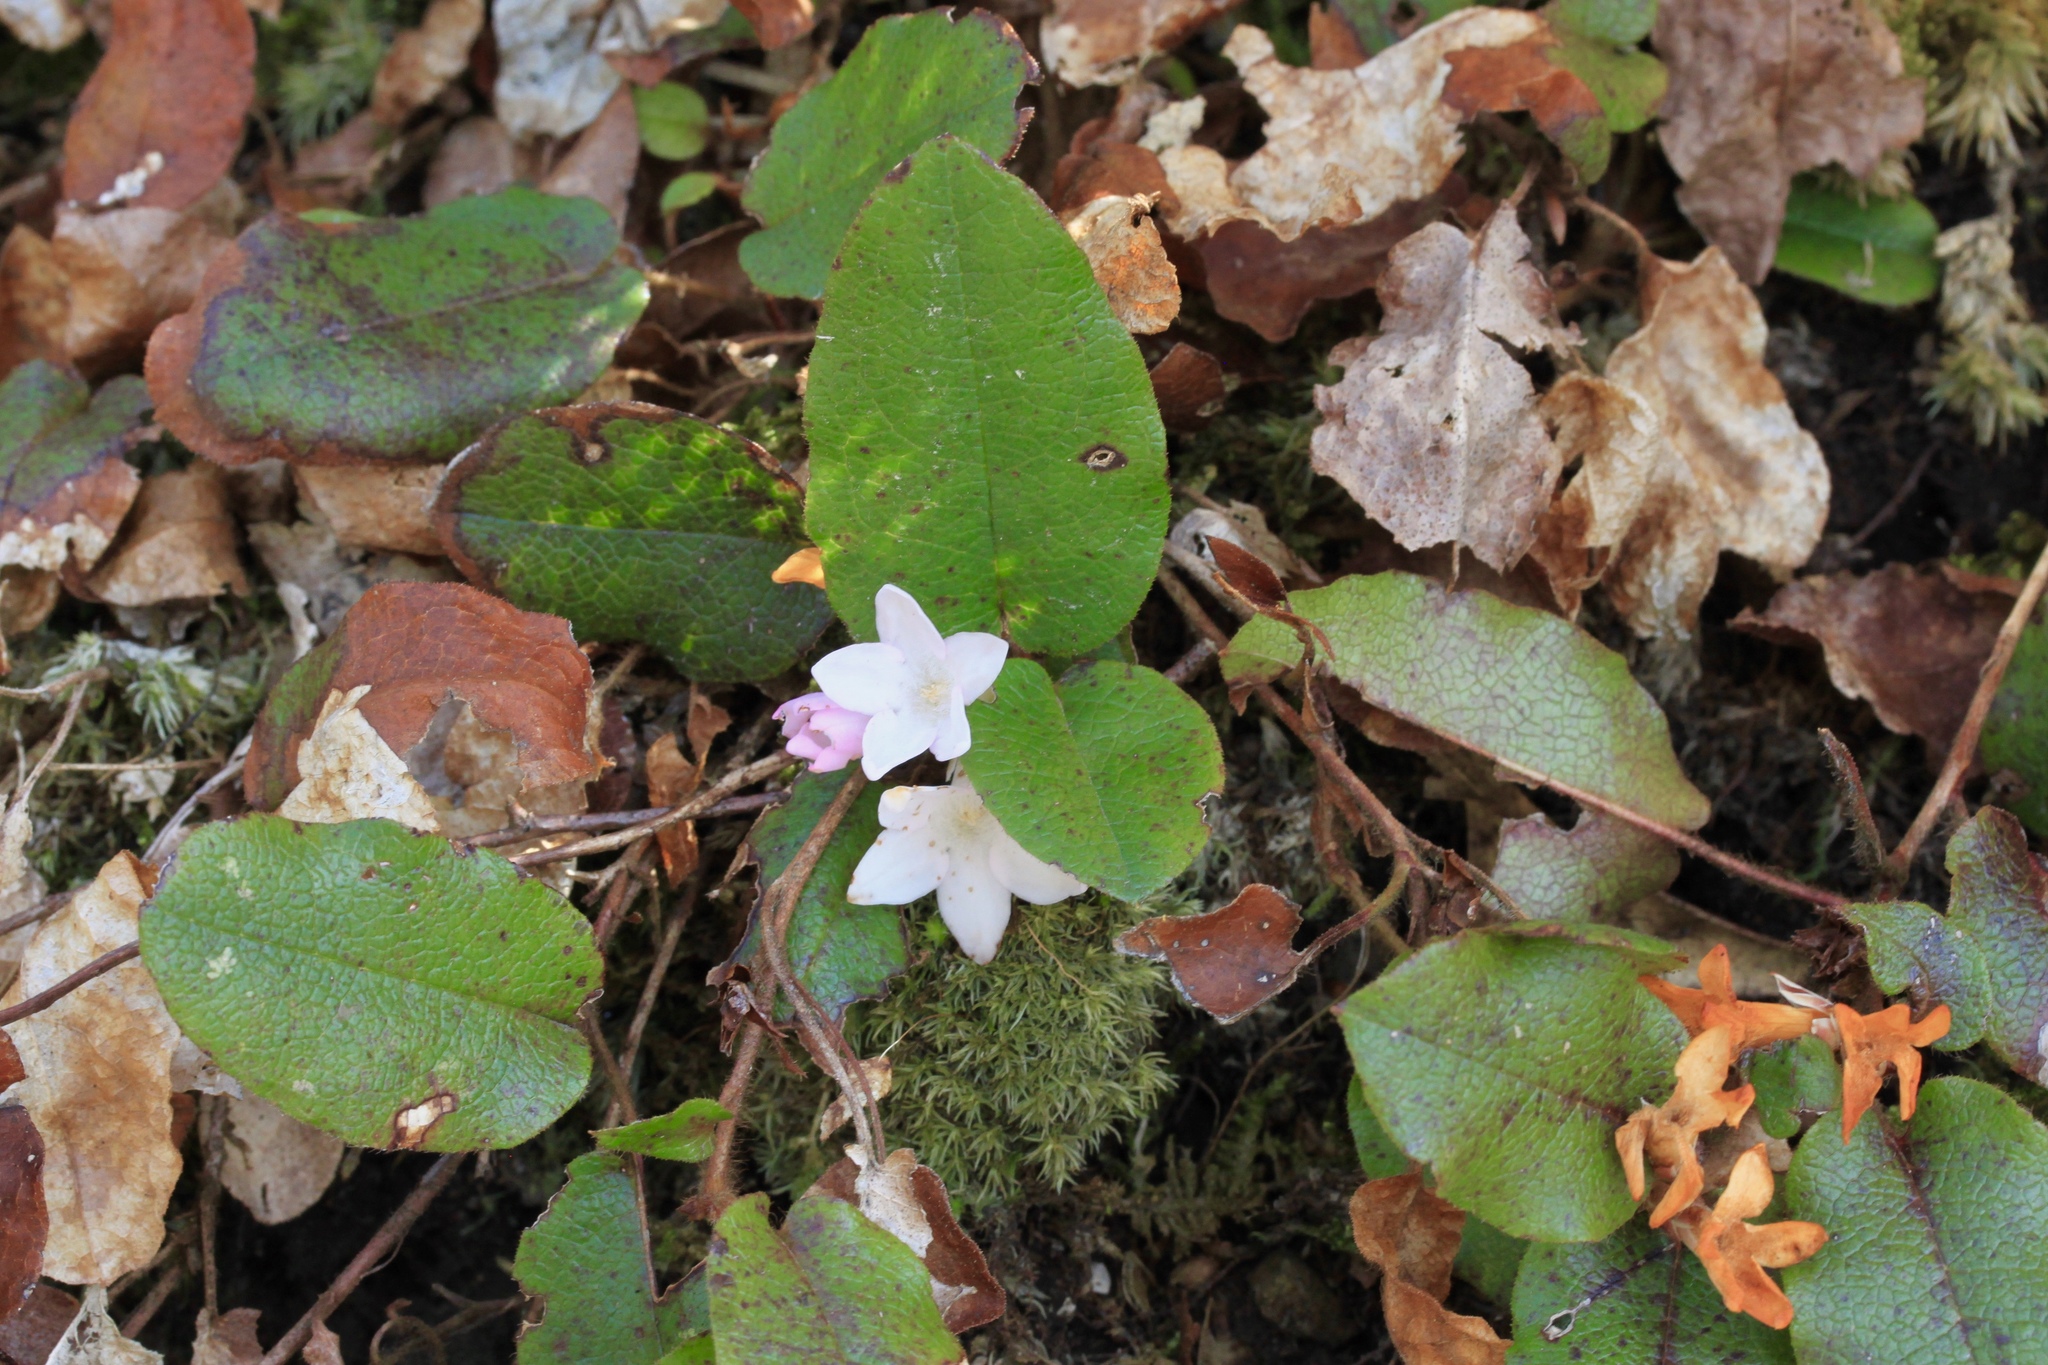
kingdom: Plantae
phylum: Tracheophyta
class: Magnoliopsida
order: Ericales
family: Ericaceae
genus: Epigaea
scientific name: Epigaea repens
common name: Gravelroot
